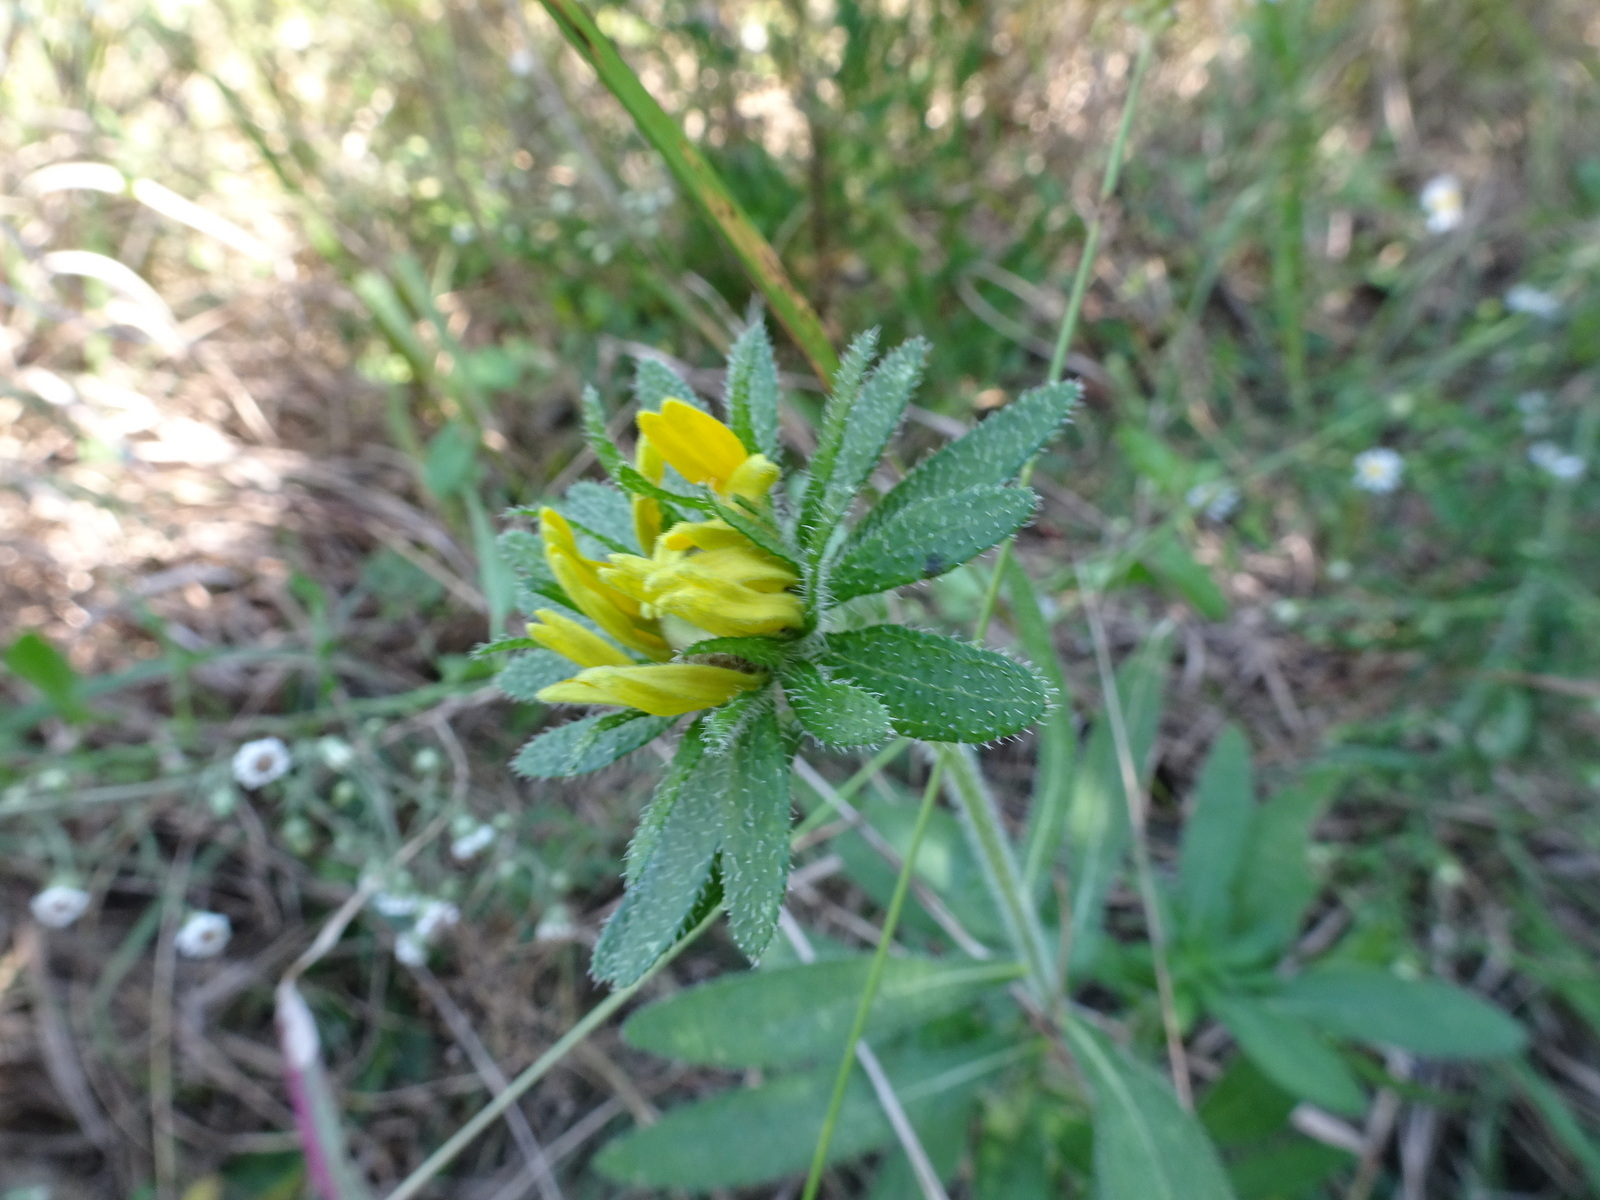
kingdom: Plantae
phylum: Tracheophyta
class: Magnoliopsida
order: Asterales
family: Asteraceae
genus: Rudbeckia
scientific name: Rudbeckia hirta
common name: Black-eyed-susan
